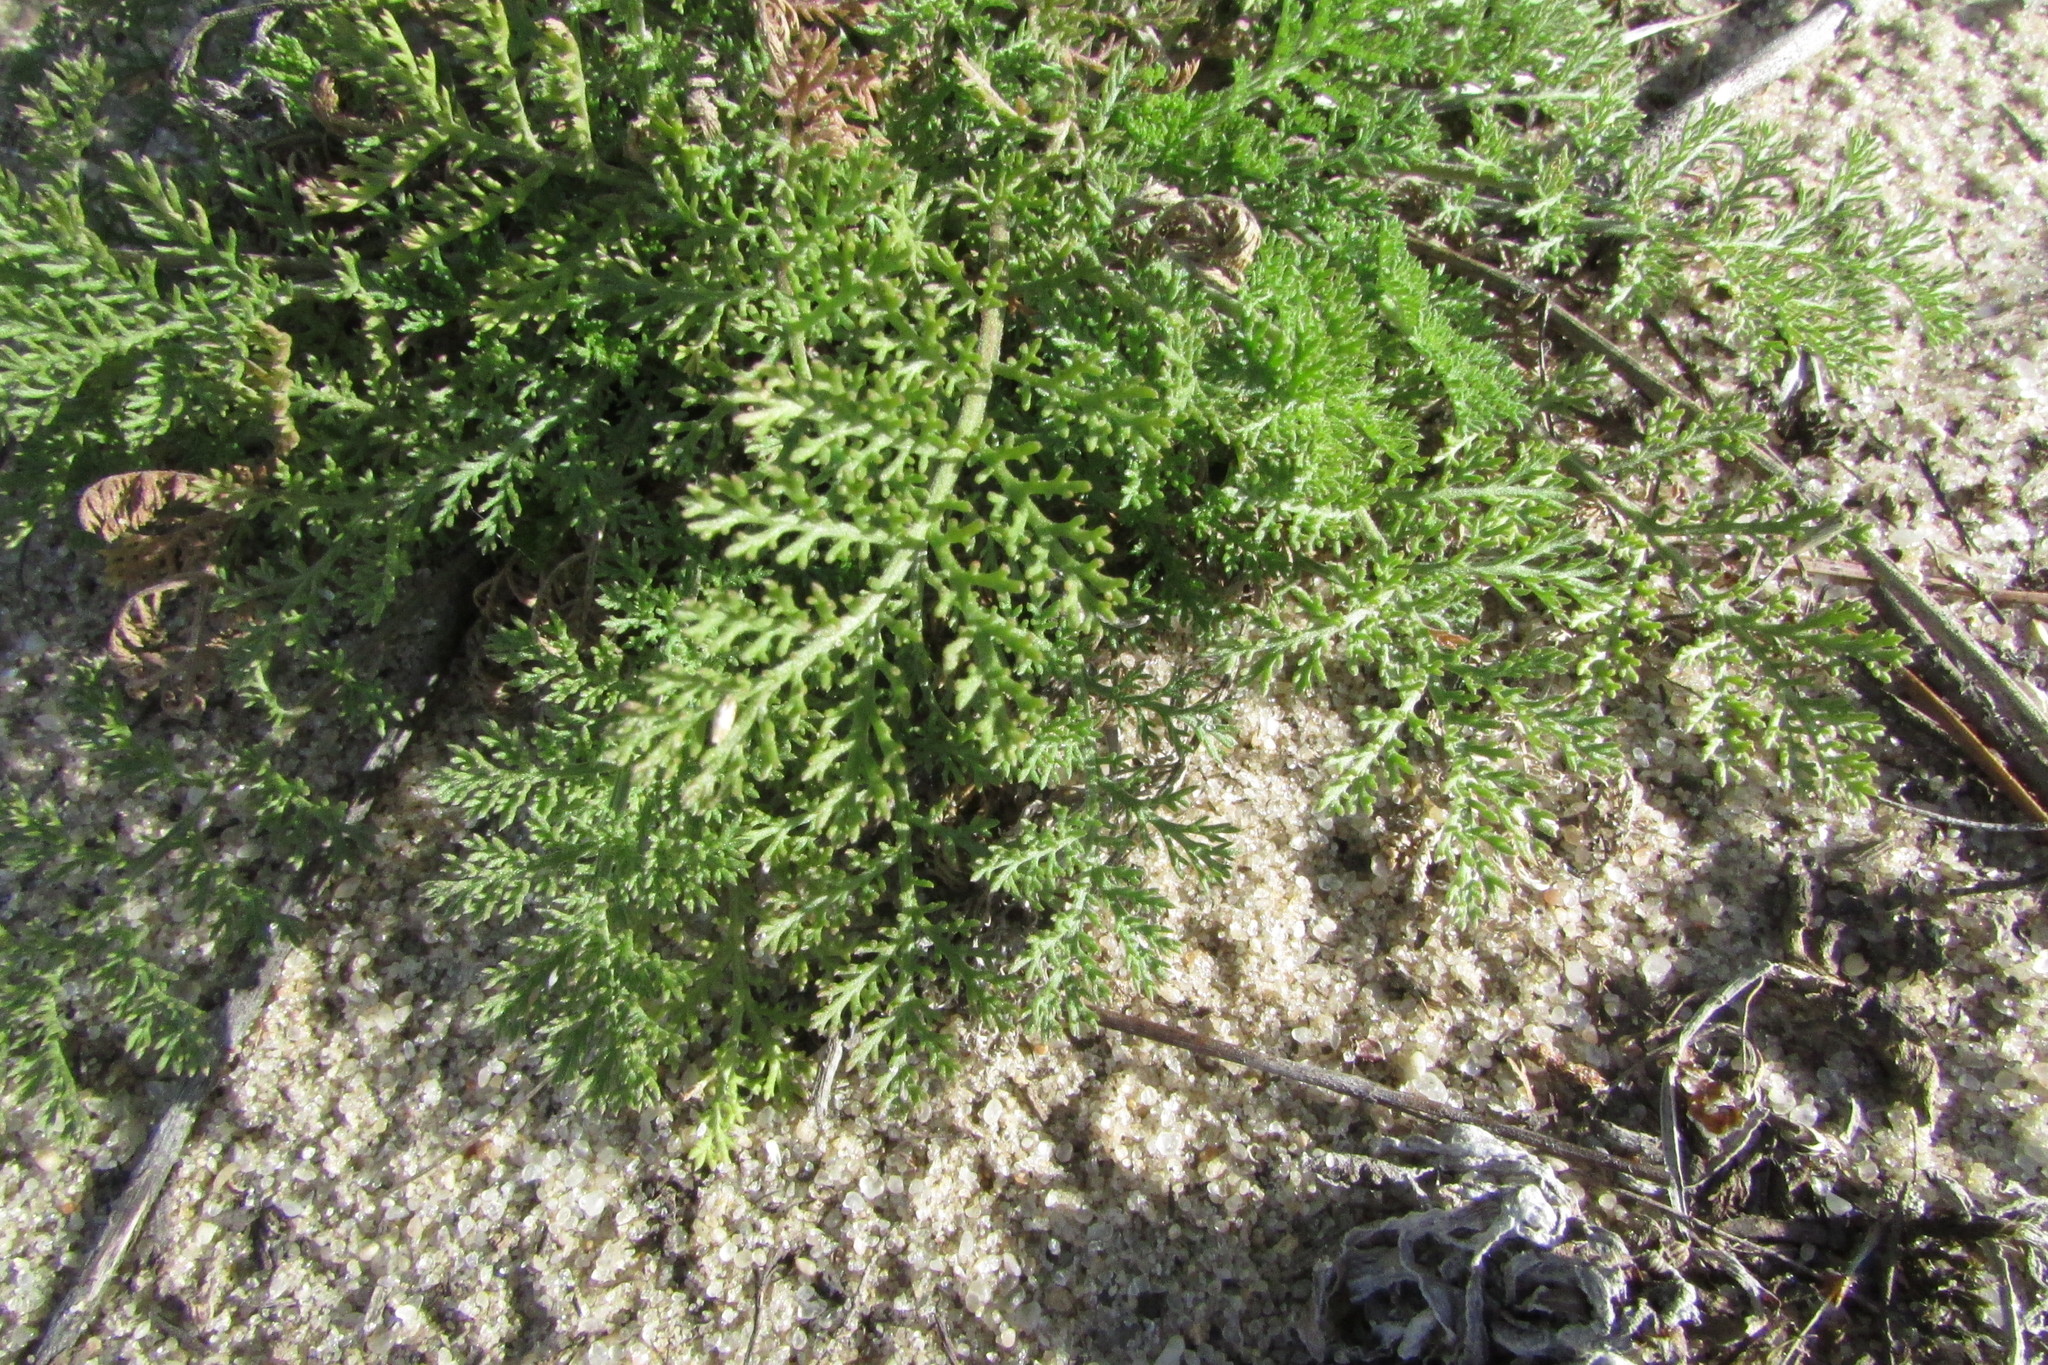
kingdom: Plantae
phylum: Tracheophyta
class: Magnoliopsida
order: Asterales
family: Asteraceae
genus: Achillea
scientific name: Achillea nobilis
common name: Noble yarrow
